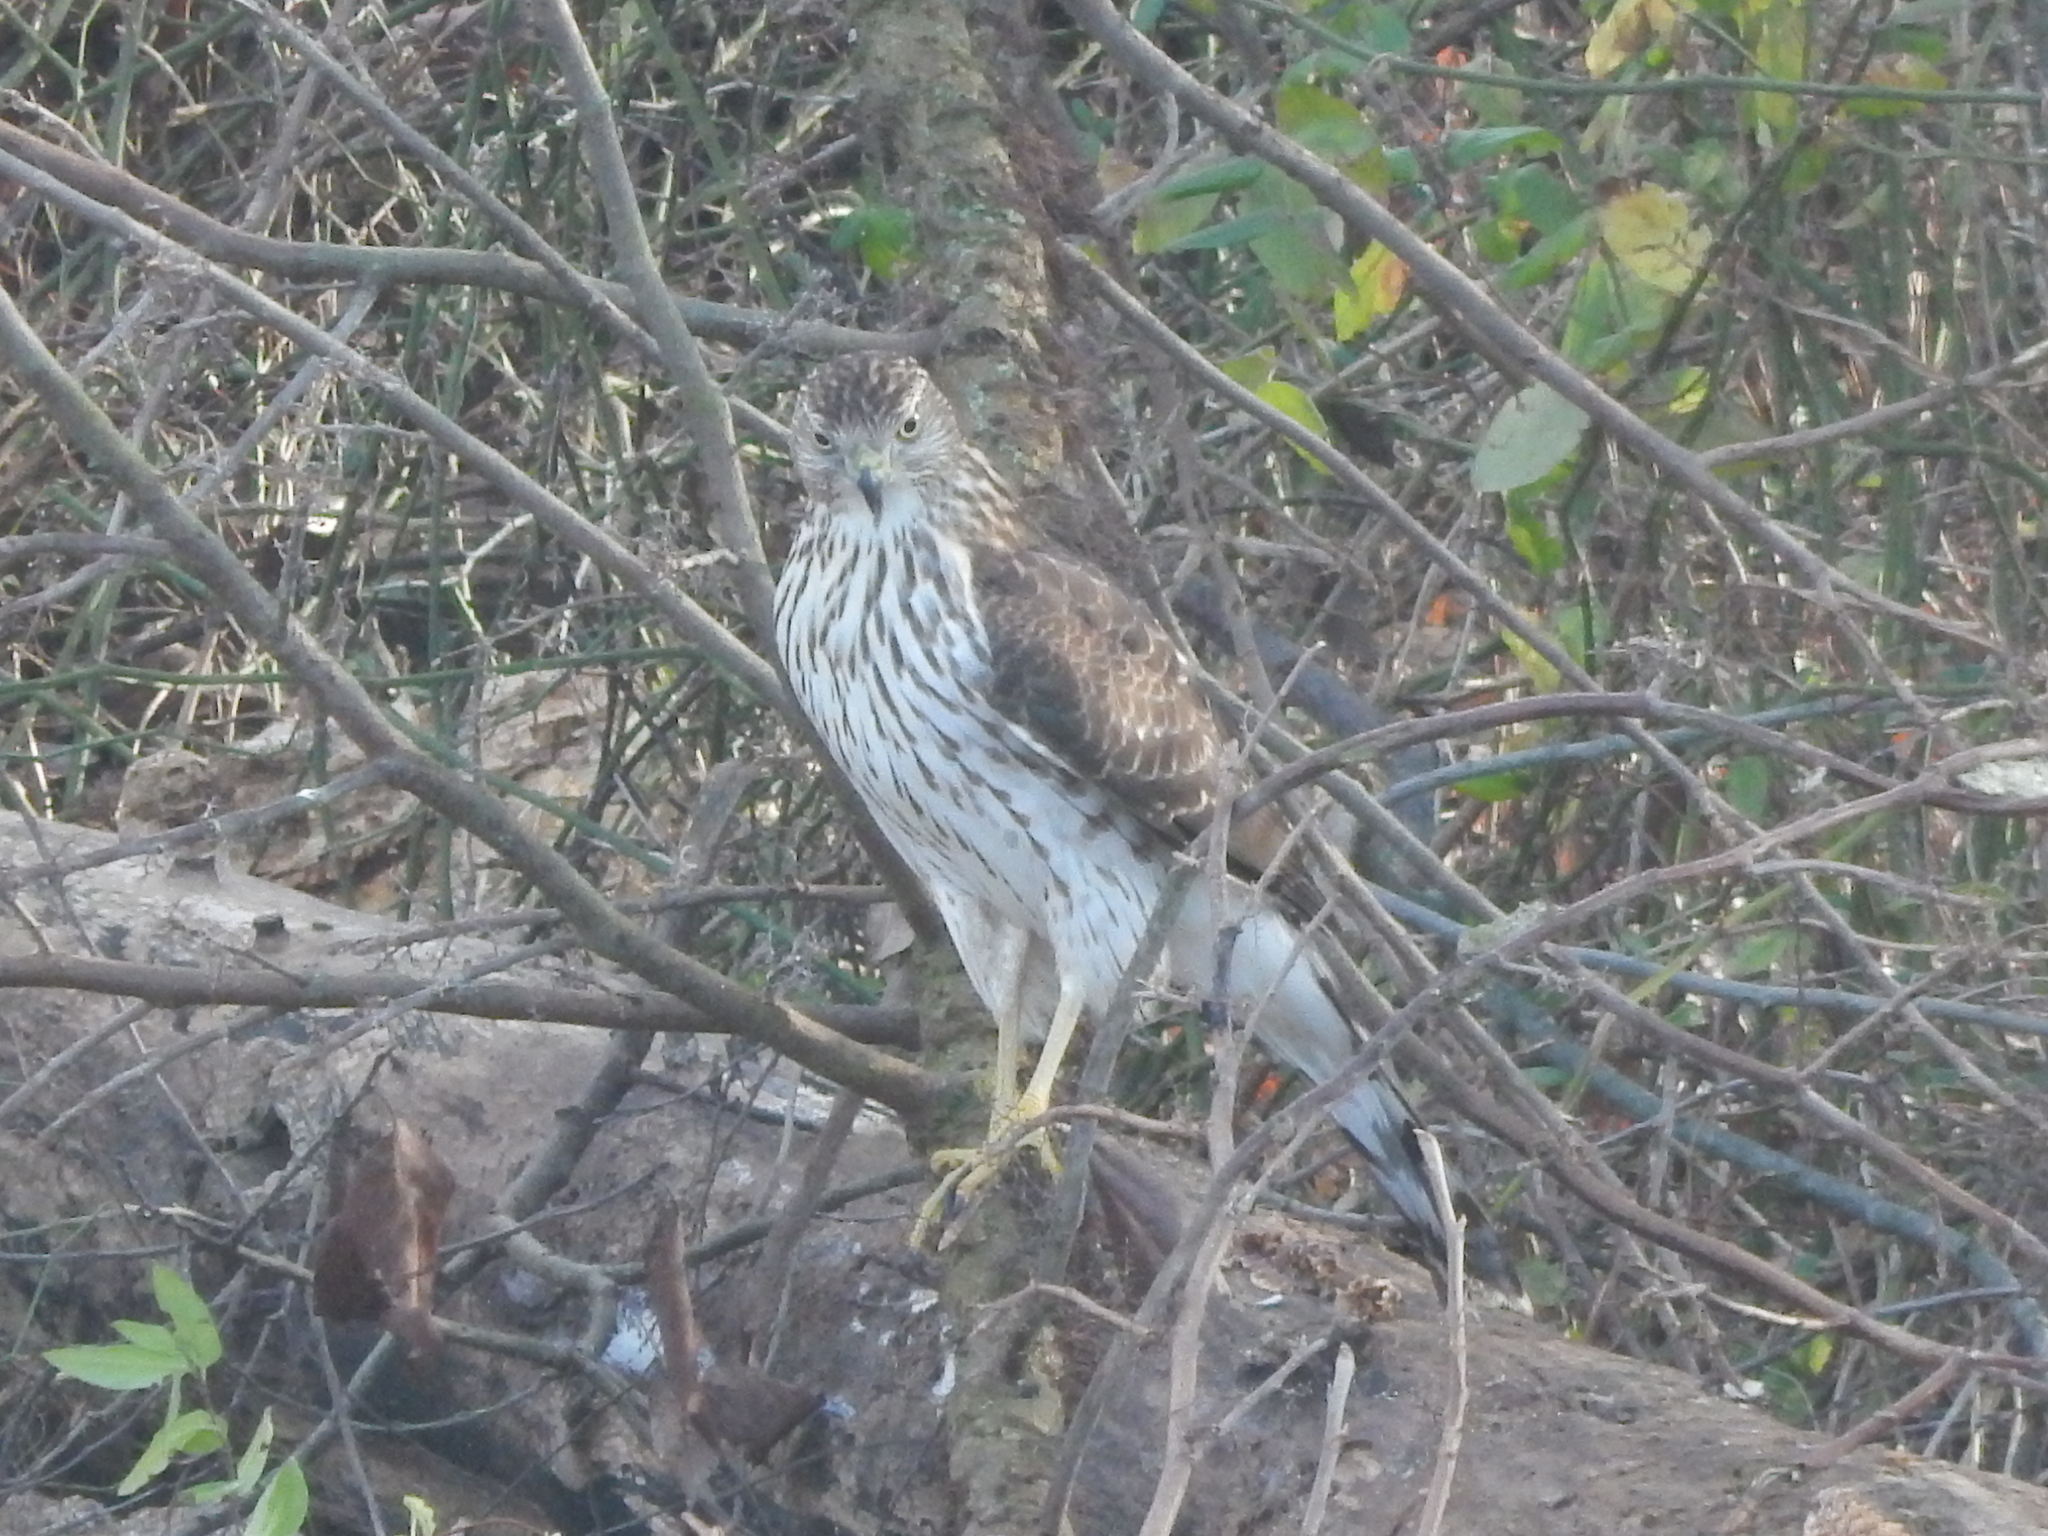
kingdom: Animalia
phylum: Chordata
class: Aves
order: Accipitriformes
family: Accipitridae
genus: Accipiter
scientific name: Accipiter cooperii
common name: Cooper's hawk
